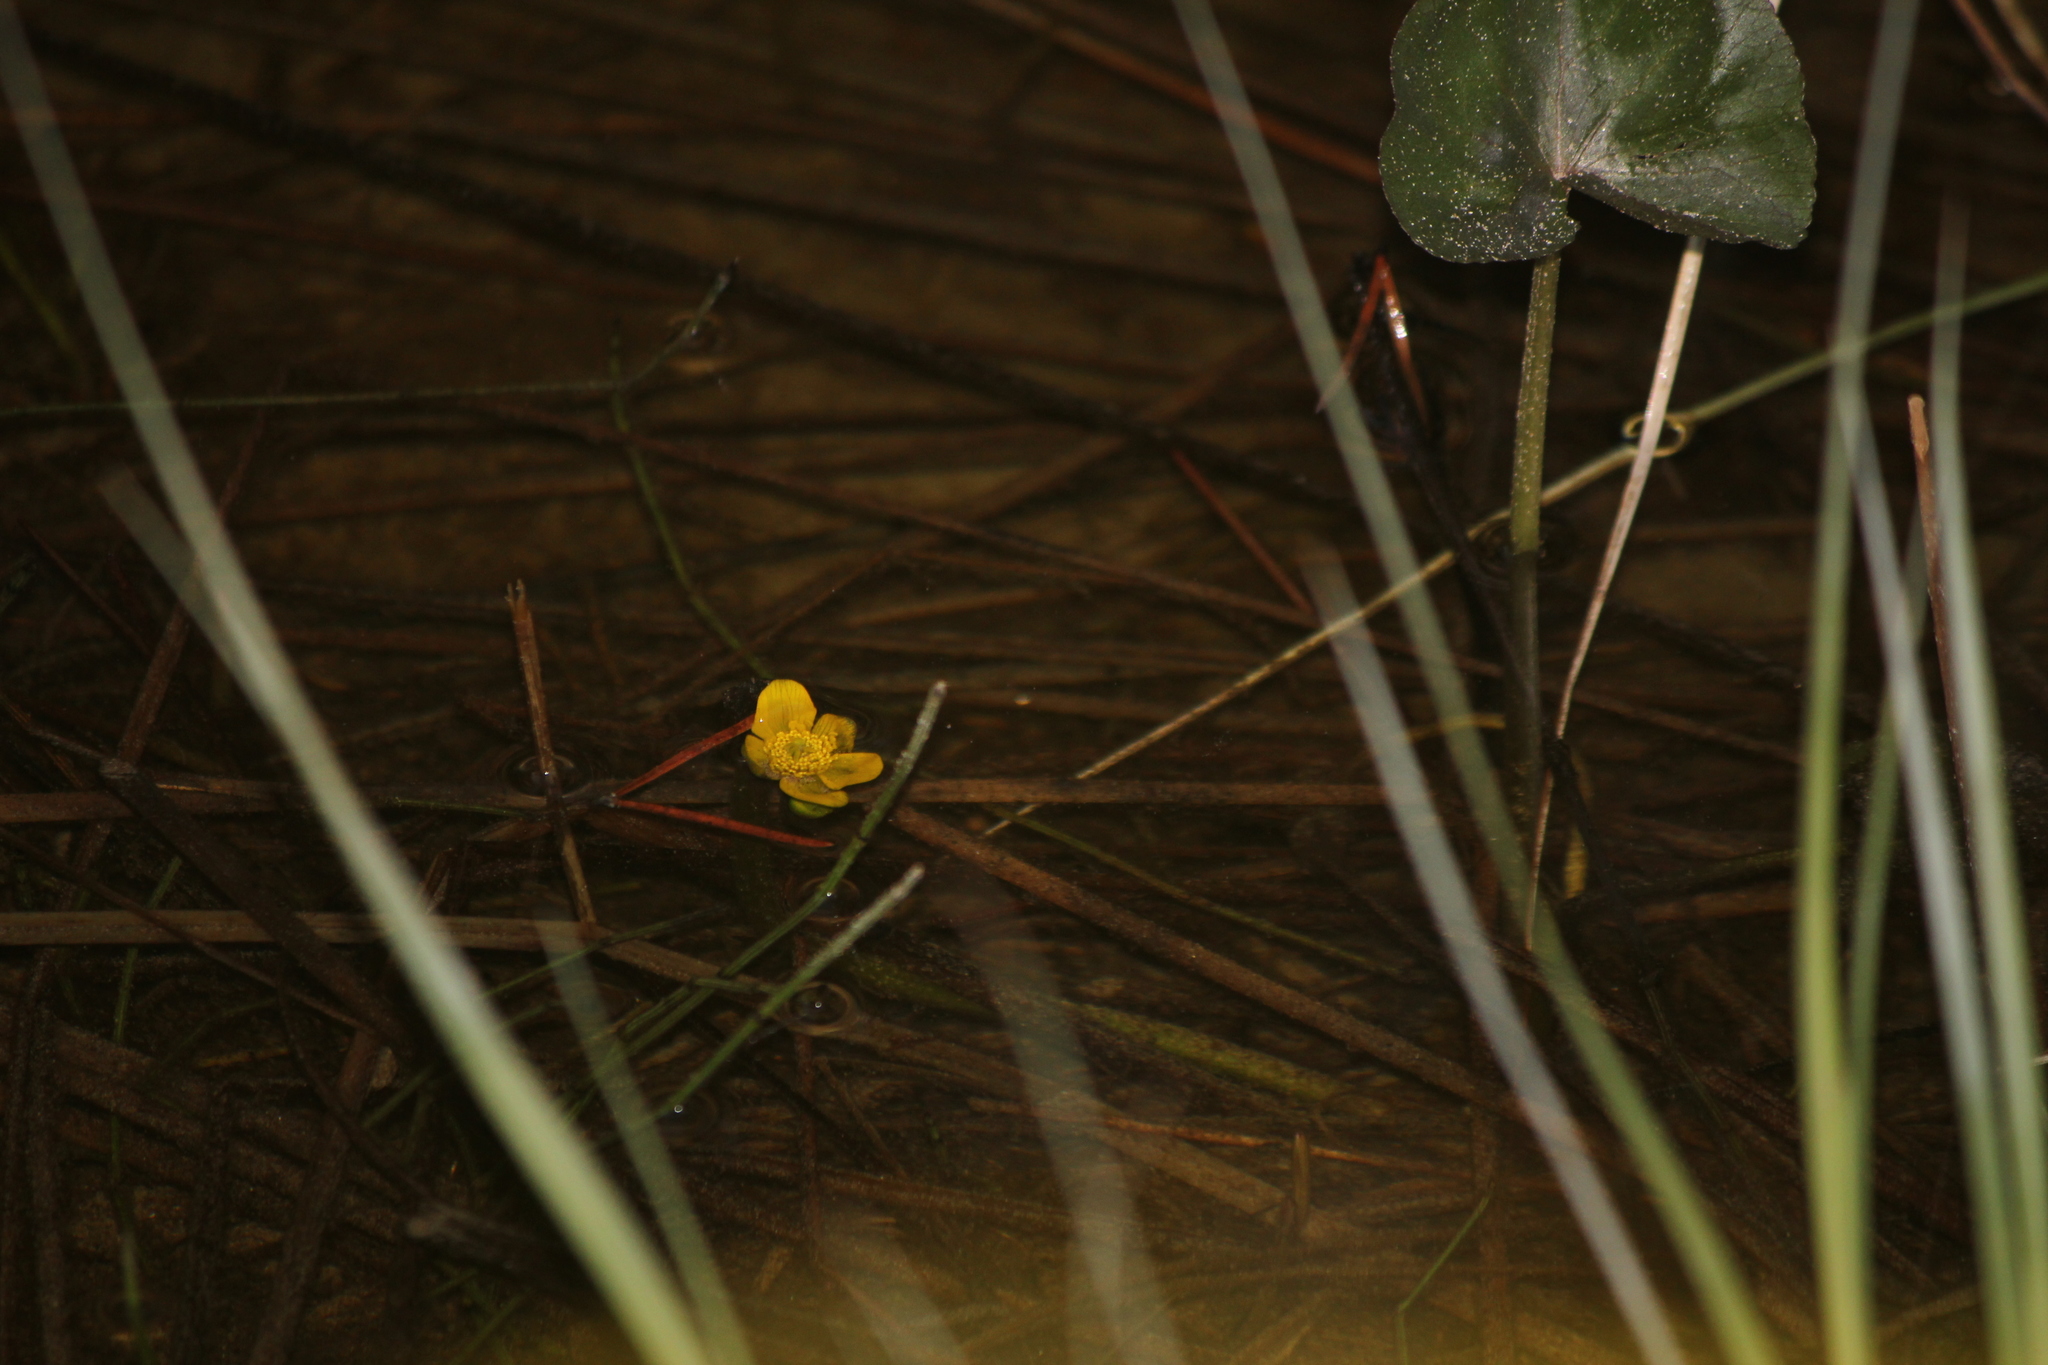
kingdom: Plantae
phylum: Tracheophyta
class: Magnoliopsida
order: Ranunculales
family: Ranunculaceae
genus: Caltha
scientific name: Caltha palustris
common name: Marsh marigold
